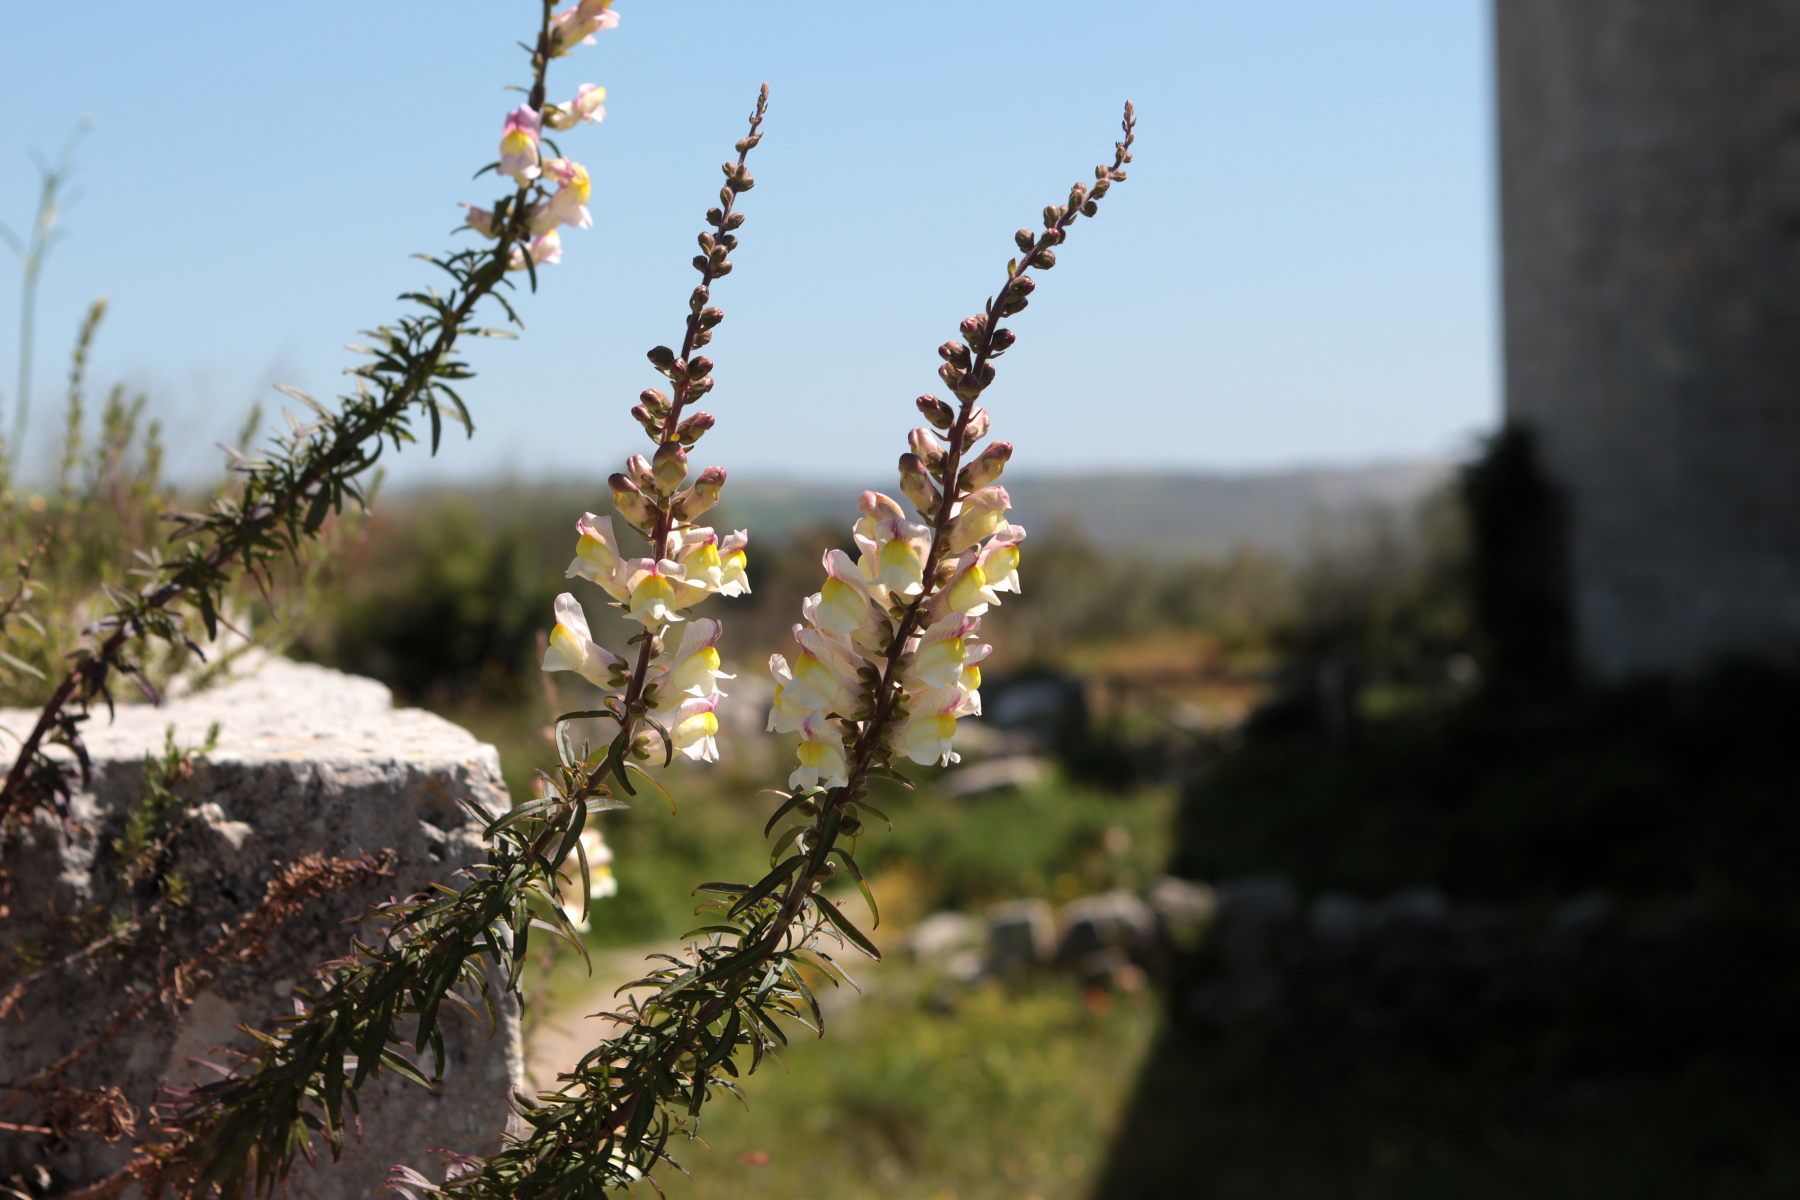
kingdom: Plantae
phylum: Tracheophyta
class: Magnoliopsida
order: Lamiales
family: Plantaginaceae
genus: Antirrhinum
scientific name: Antirrhinum siculum
